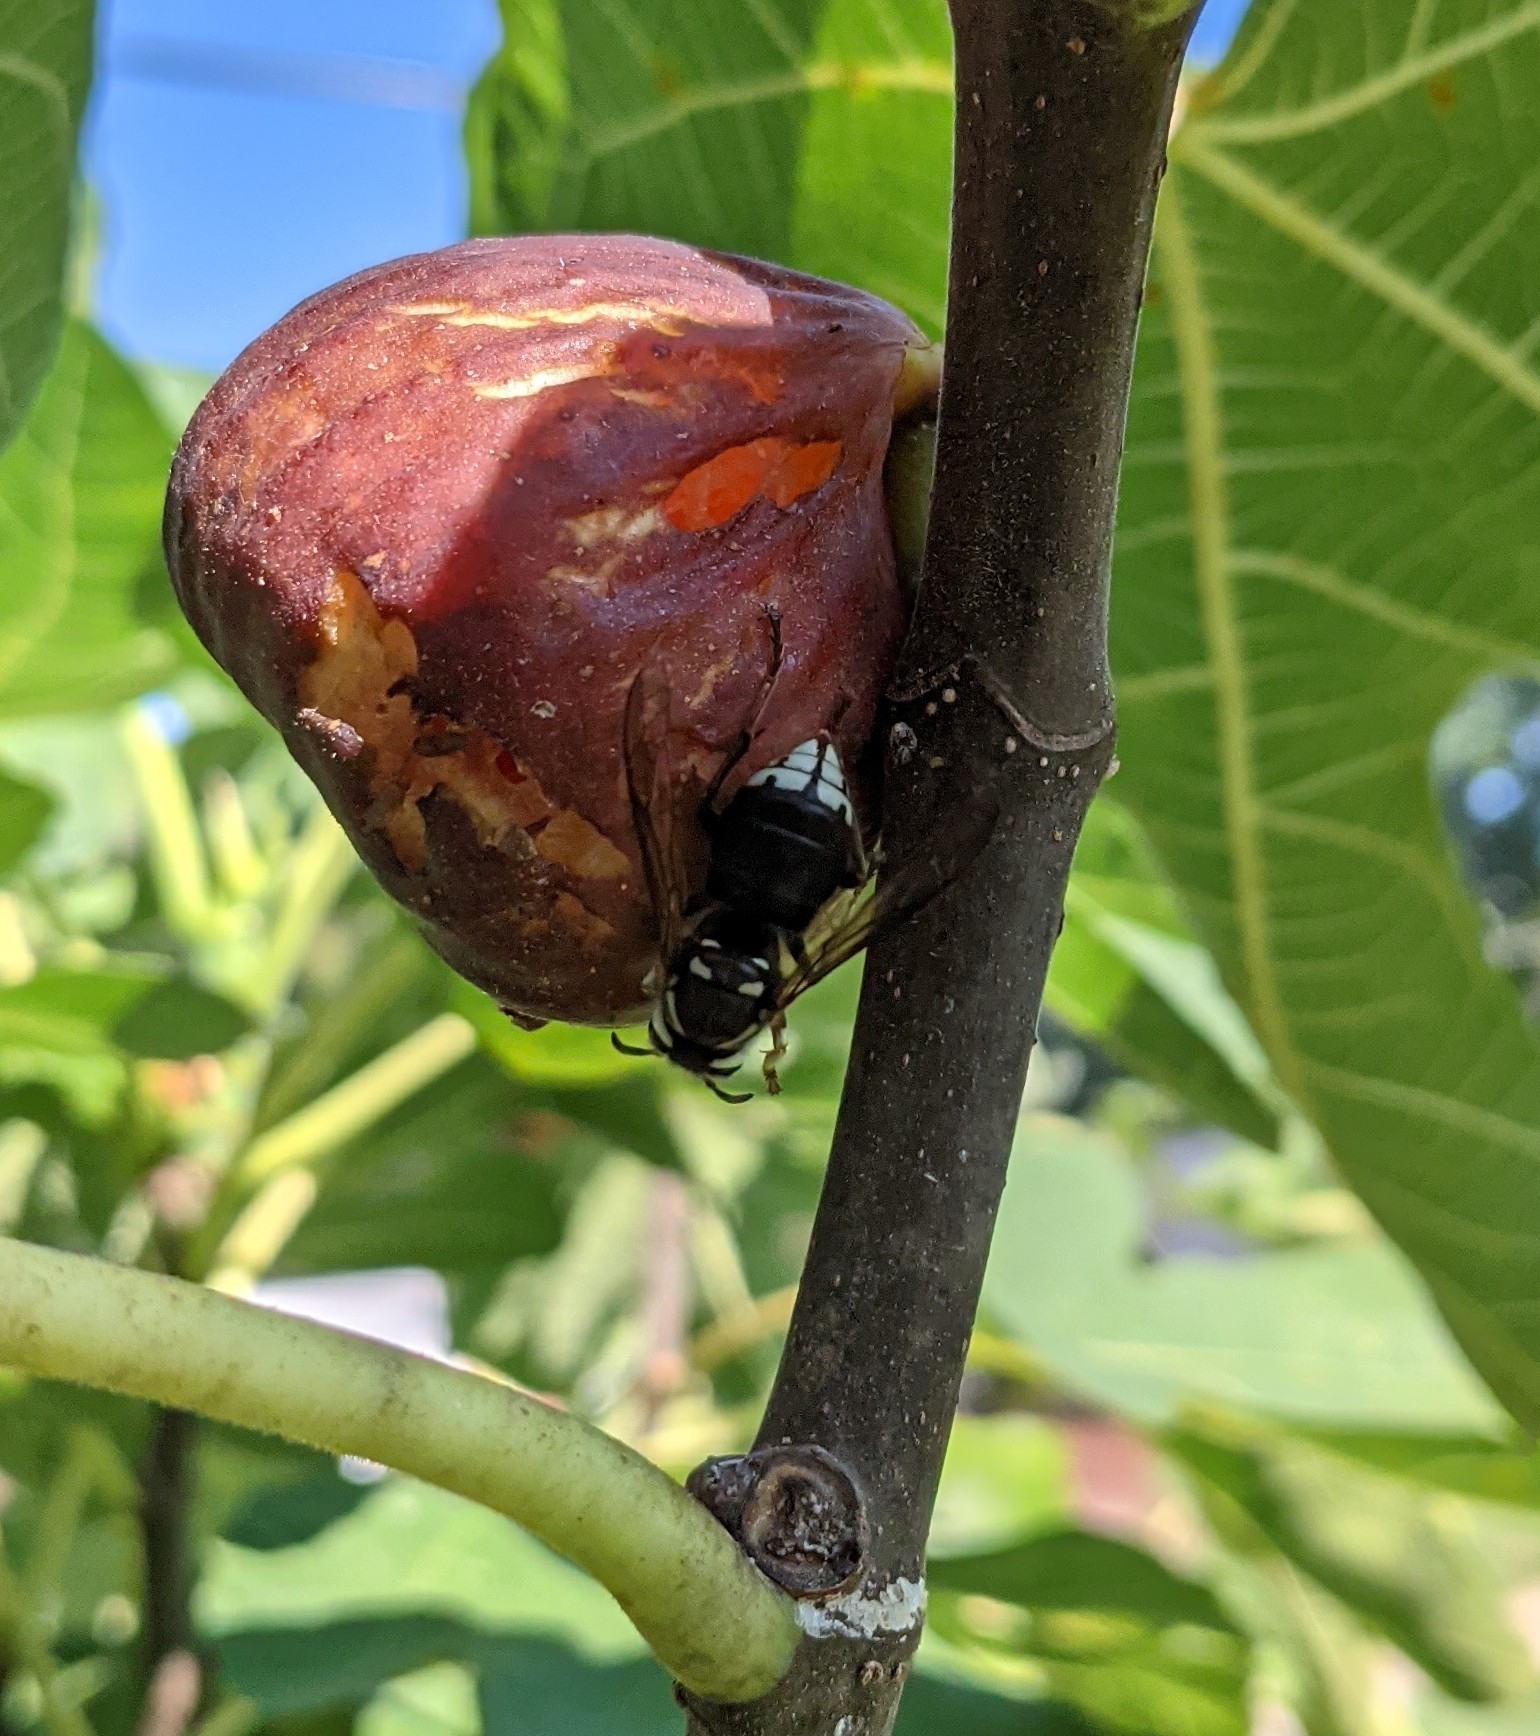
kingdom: Animalia
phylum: Arthropoda
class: Insecta
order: Hymenoptera
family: Vespidae
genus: Dolichovespula
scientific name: Dolichovespula maculata
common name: Bald-faced hornet
